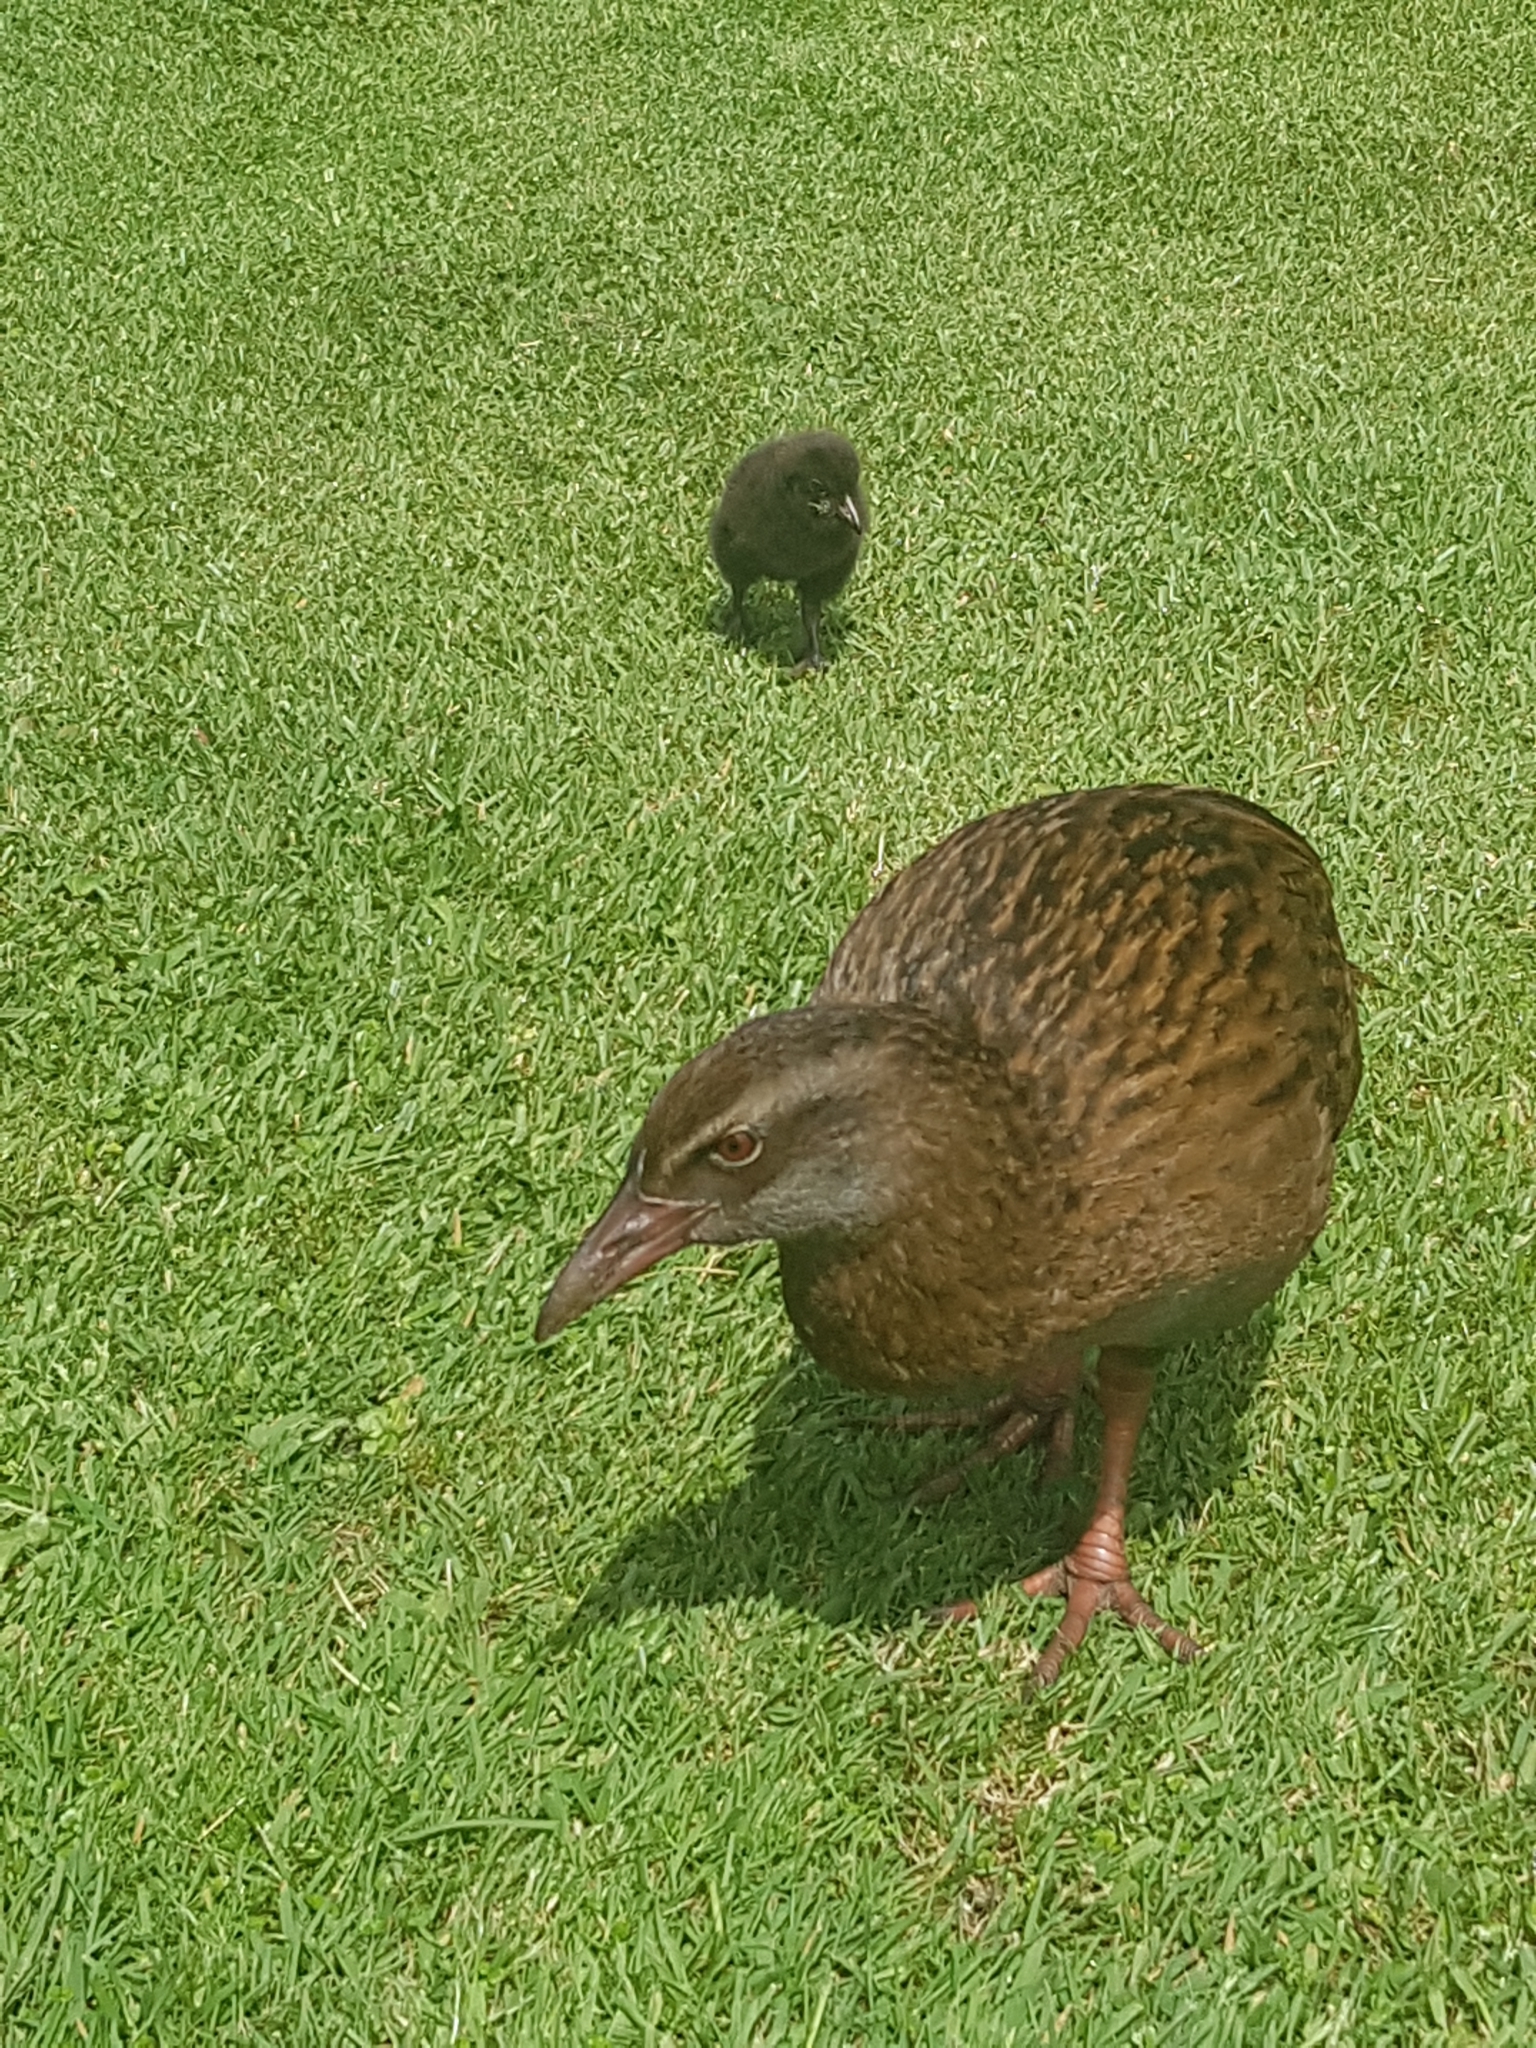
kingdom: Animalia
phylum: Chordata
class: Aves
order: Gruiformes
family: Rallidae
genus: Gallirallus
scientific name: Gallirallus australis
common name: Weka
